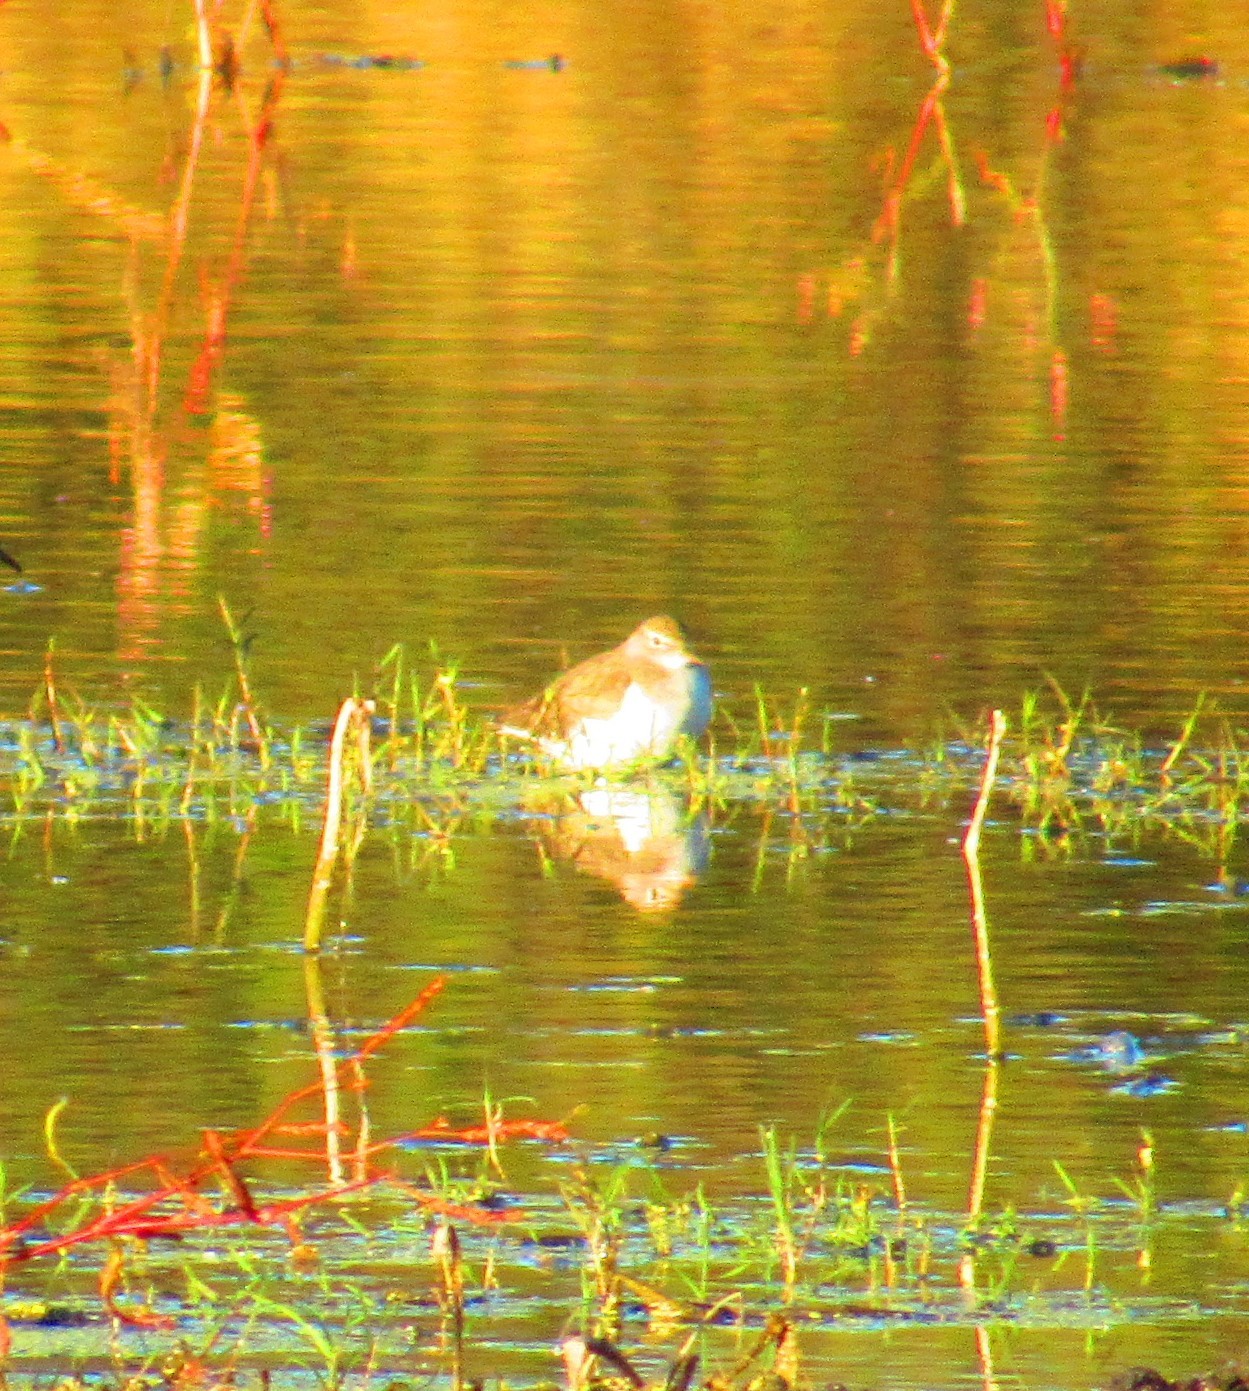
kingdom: Animalia
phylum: Chordata
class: Aves
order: Charadriiformes
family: Scolopacidae
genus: Actitis
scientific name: Actitis macularius
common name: Spotted sandpiper
